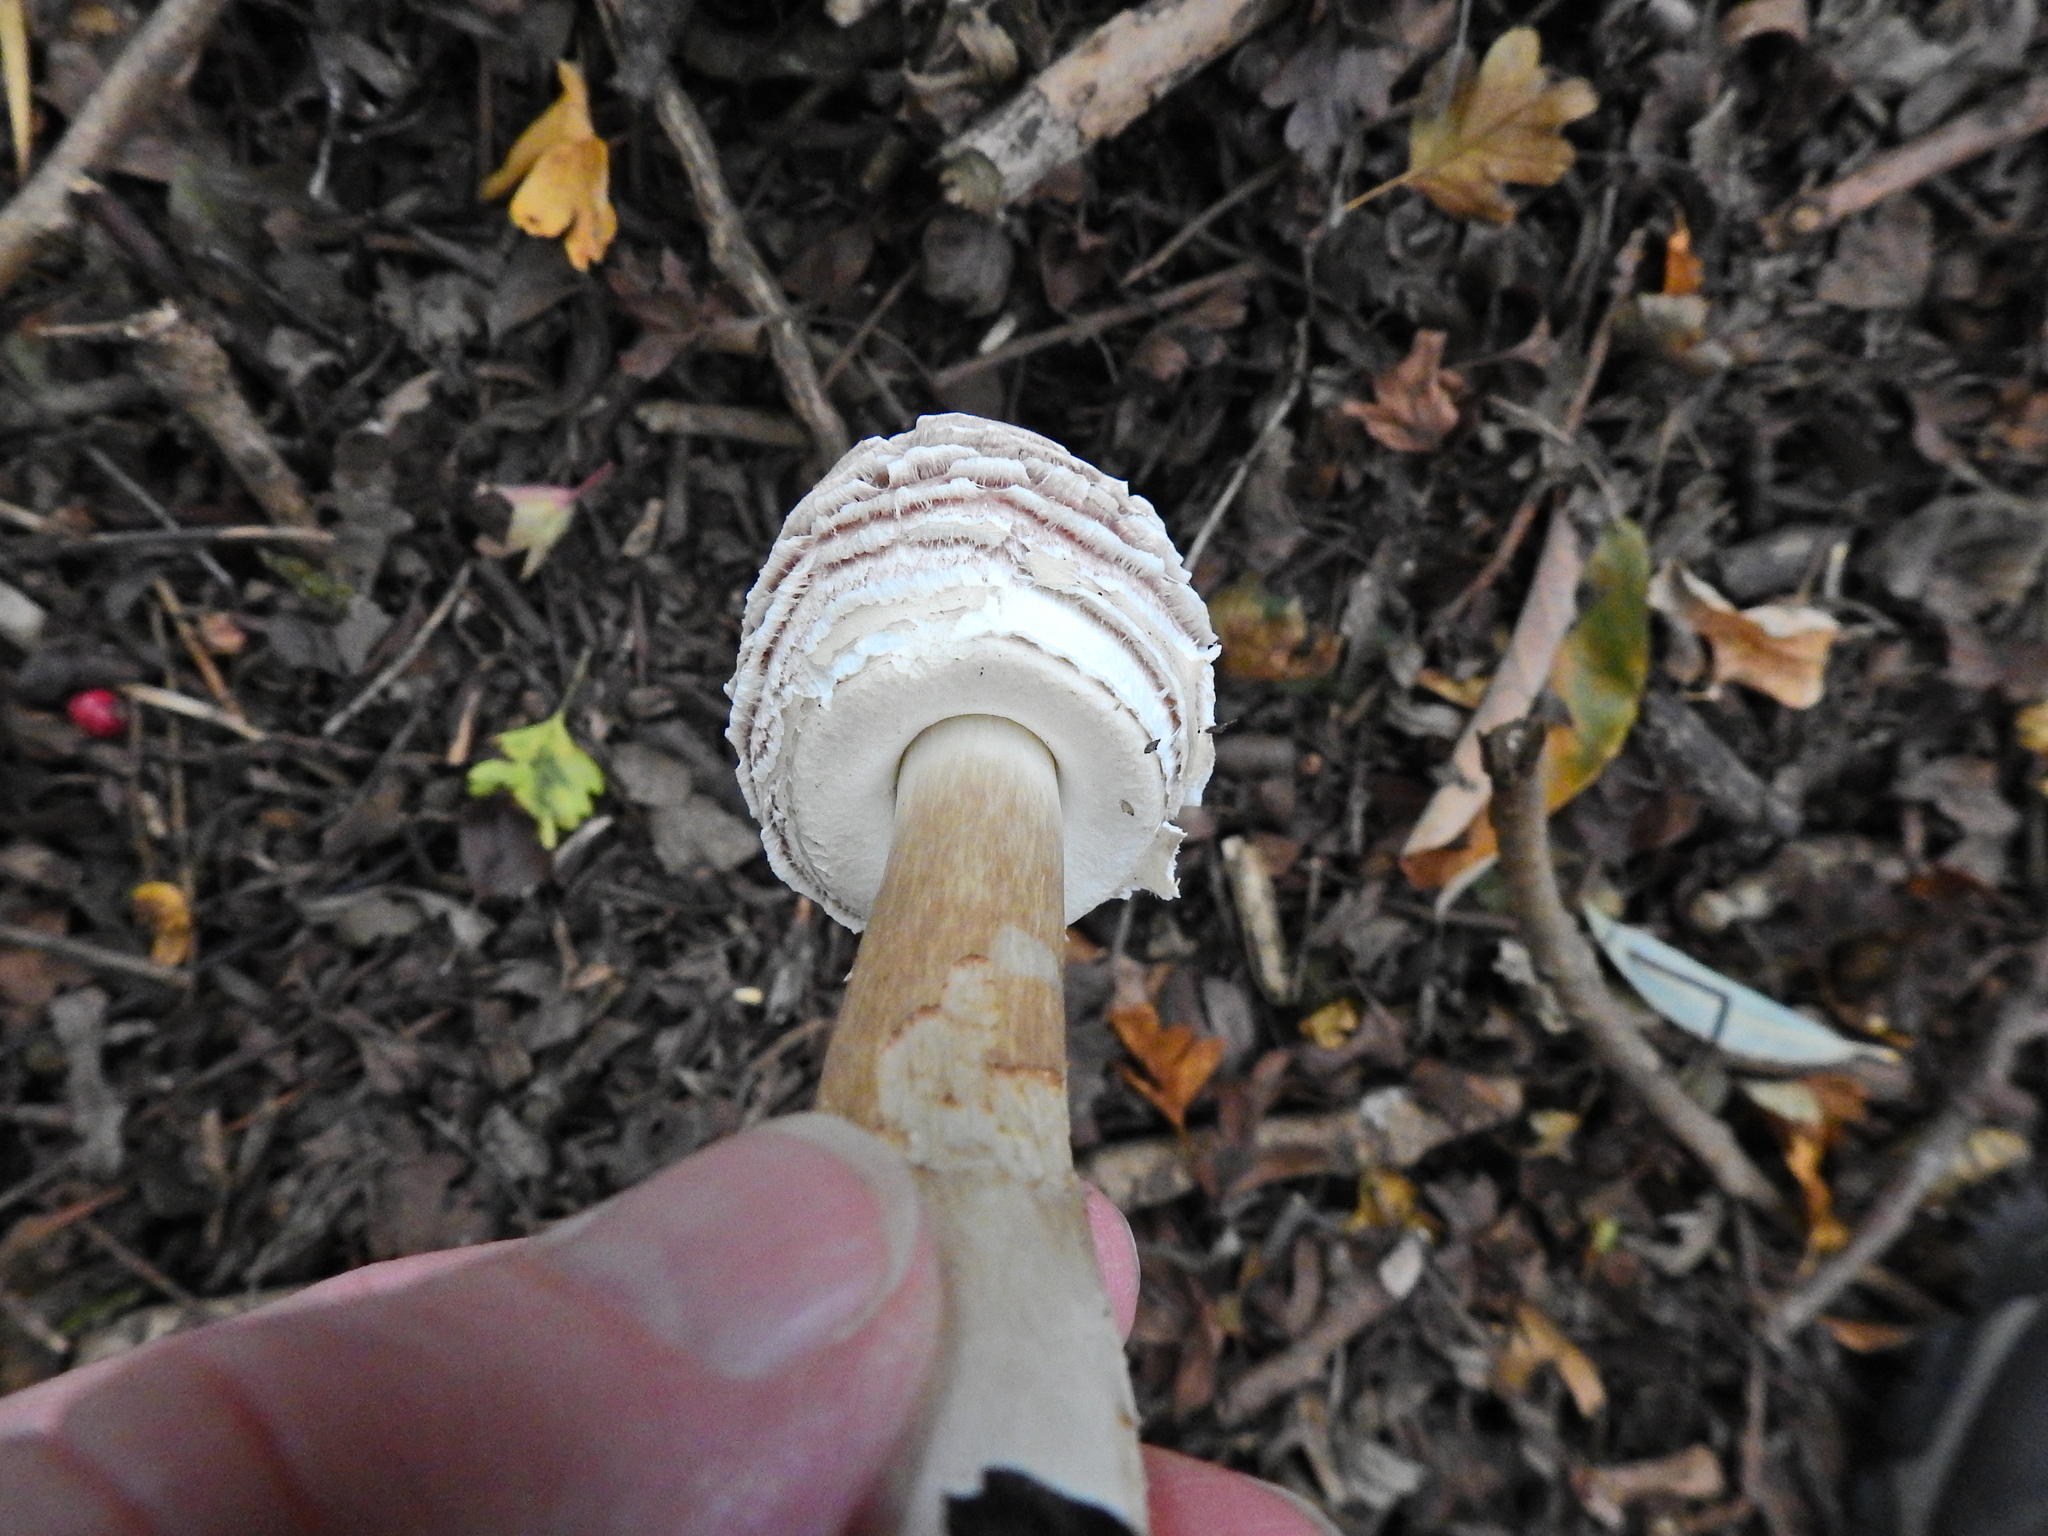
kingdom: Fungi
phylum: Basidiomycota
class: Agaricomycetes
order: Agaricales
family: Agaricaceae
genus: Chlorophyllum
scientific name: Chlorophyllum rhacodes
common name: Shaggy parasol
